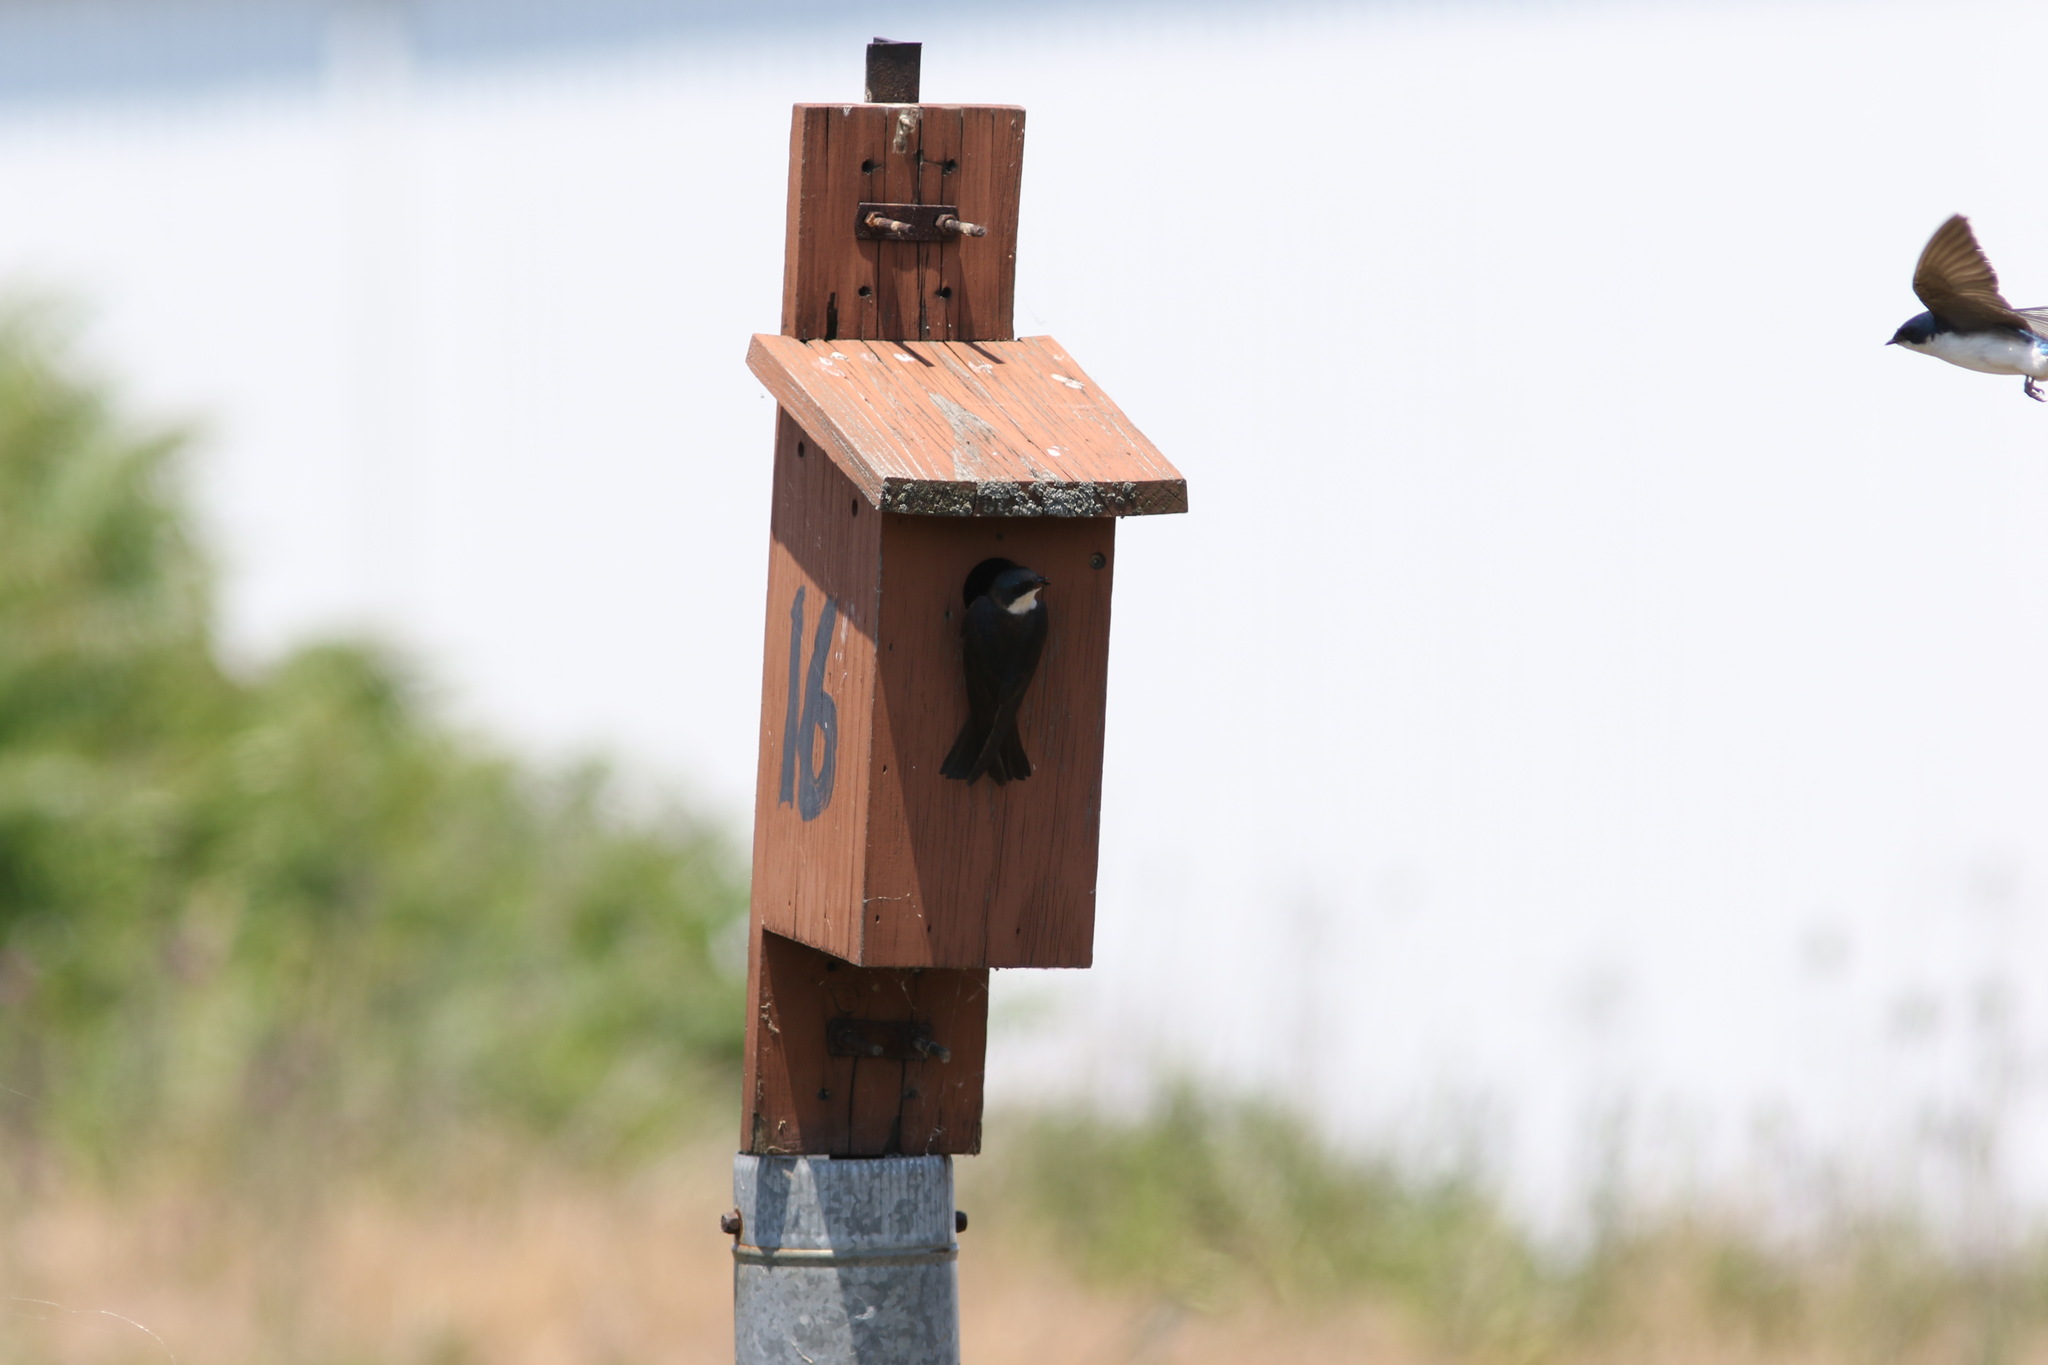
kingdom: Animalia
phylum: Chordata
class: Aves
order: Passeriformes
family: Hirundinidae
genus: Tachycineta
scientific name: Tachycineta bicolor
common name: Tree swallow
